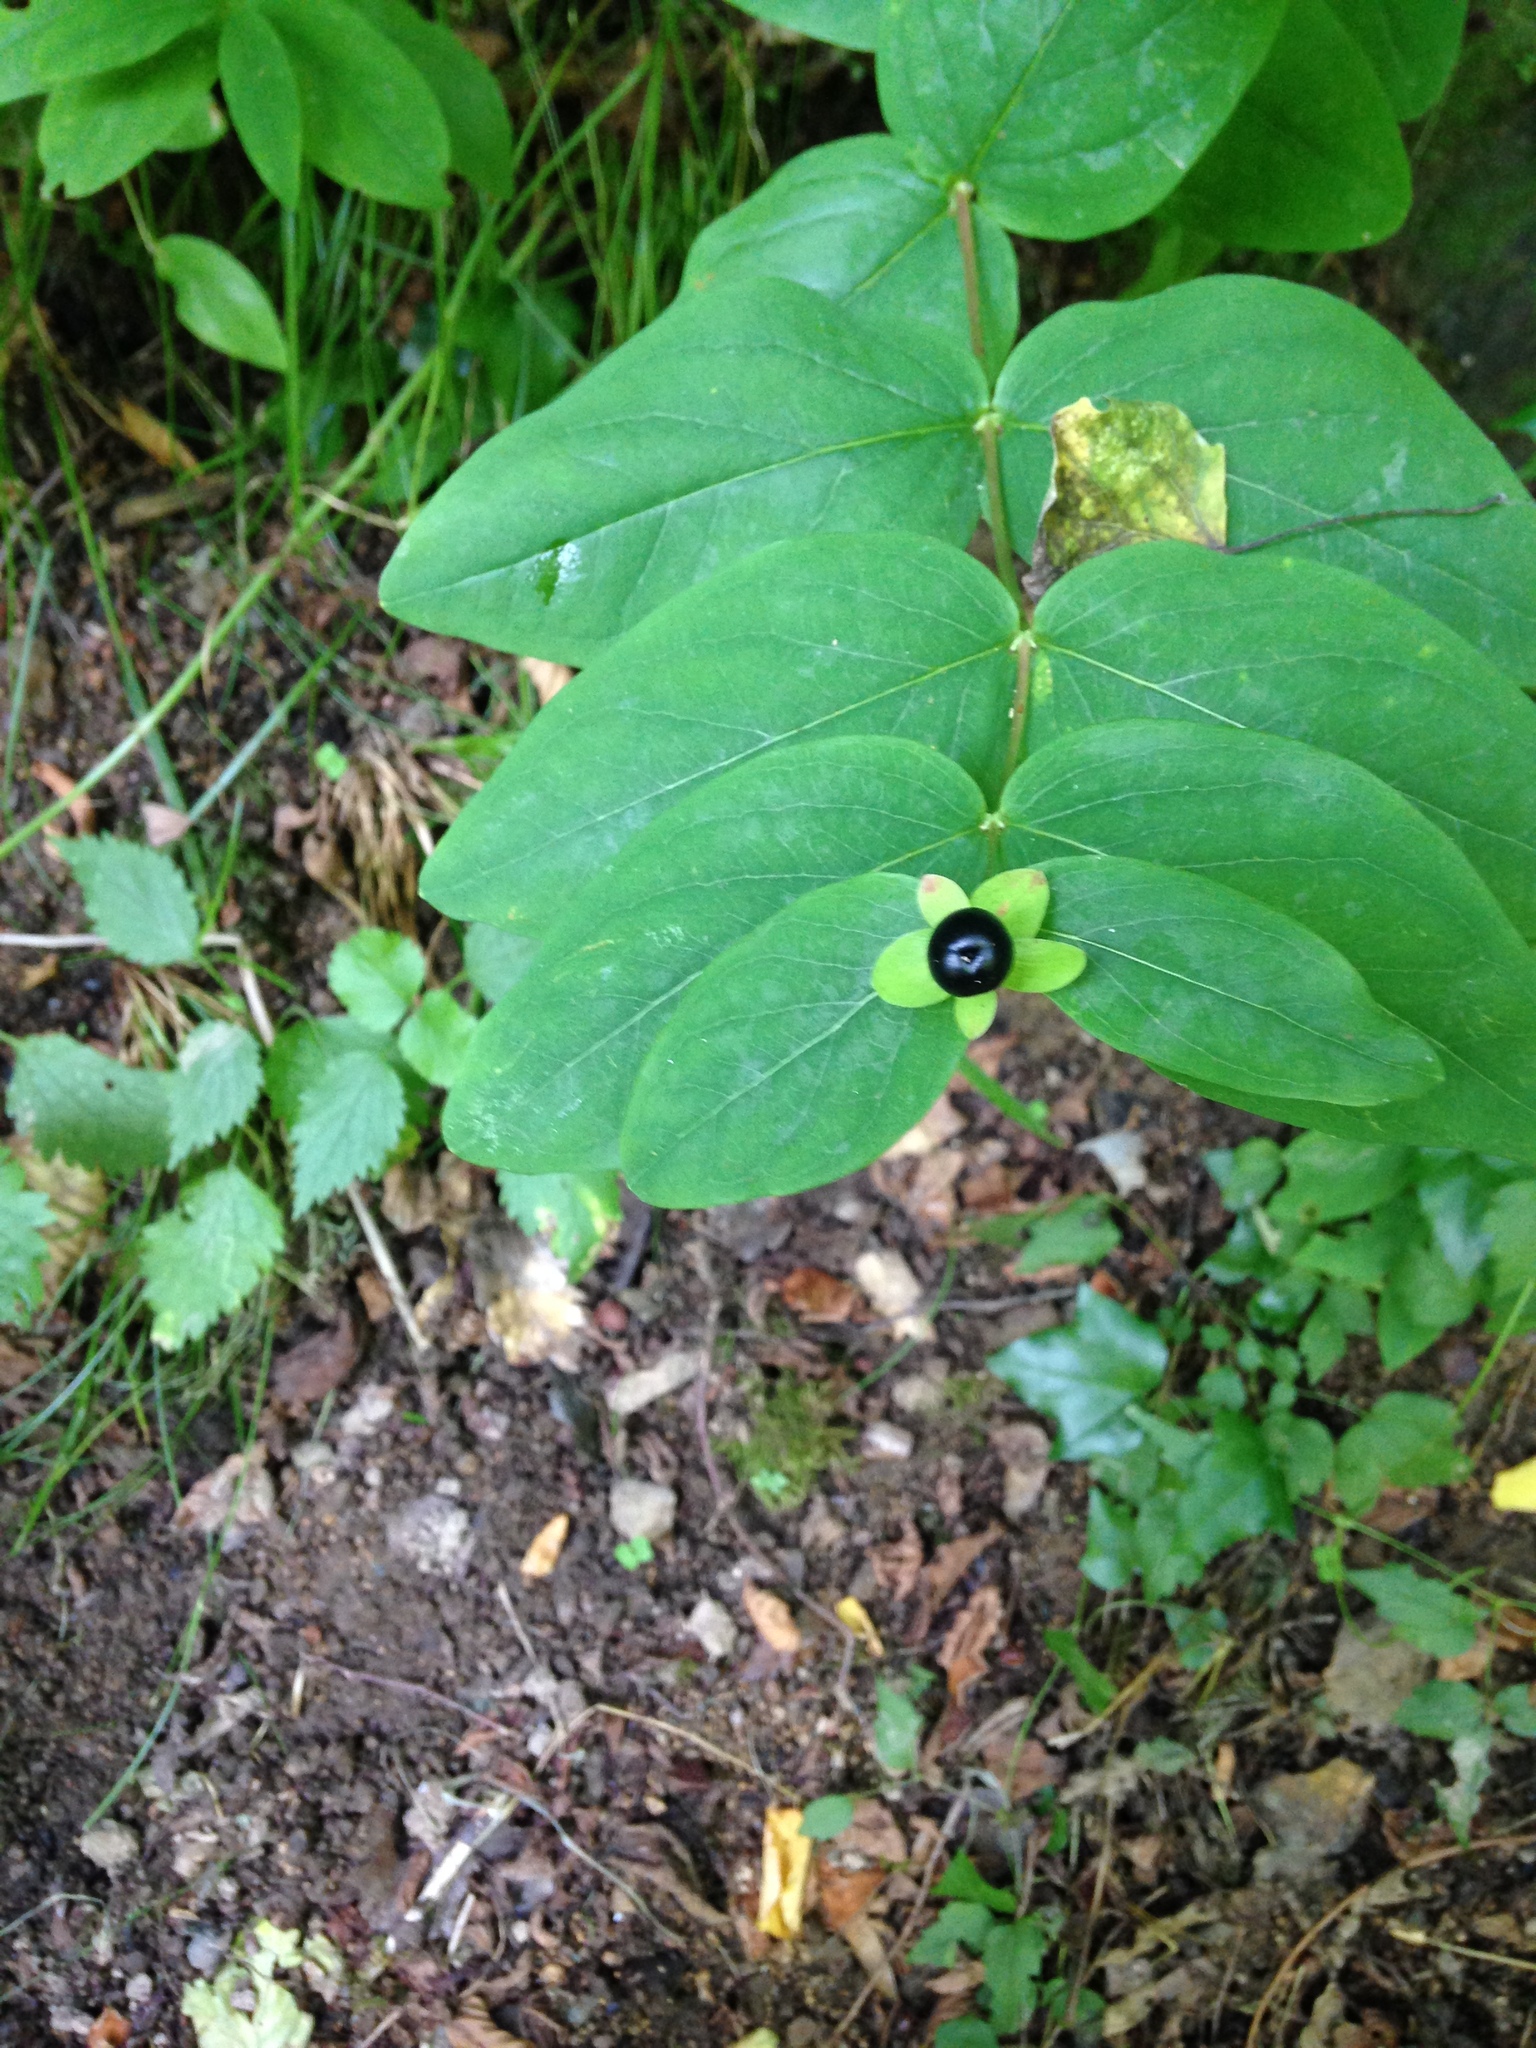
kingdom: Plantae
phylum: Tracheophyta
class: Magnoliopsida
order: Malpighiales
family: Hypericaceae
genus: Hypericum
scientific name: Hypericum androsaemum
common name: Sweet-amber
